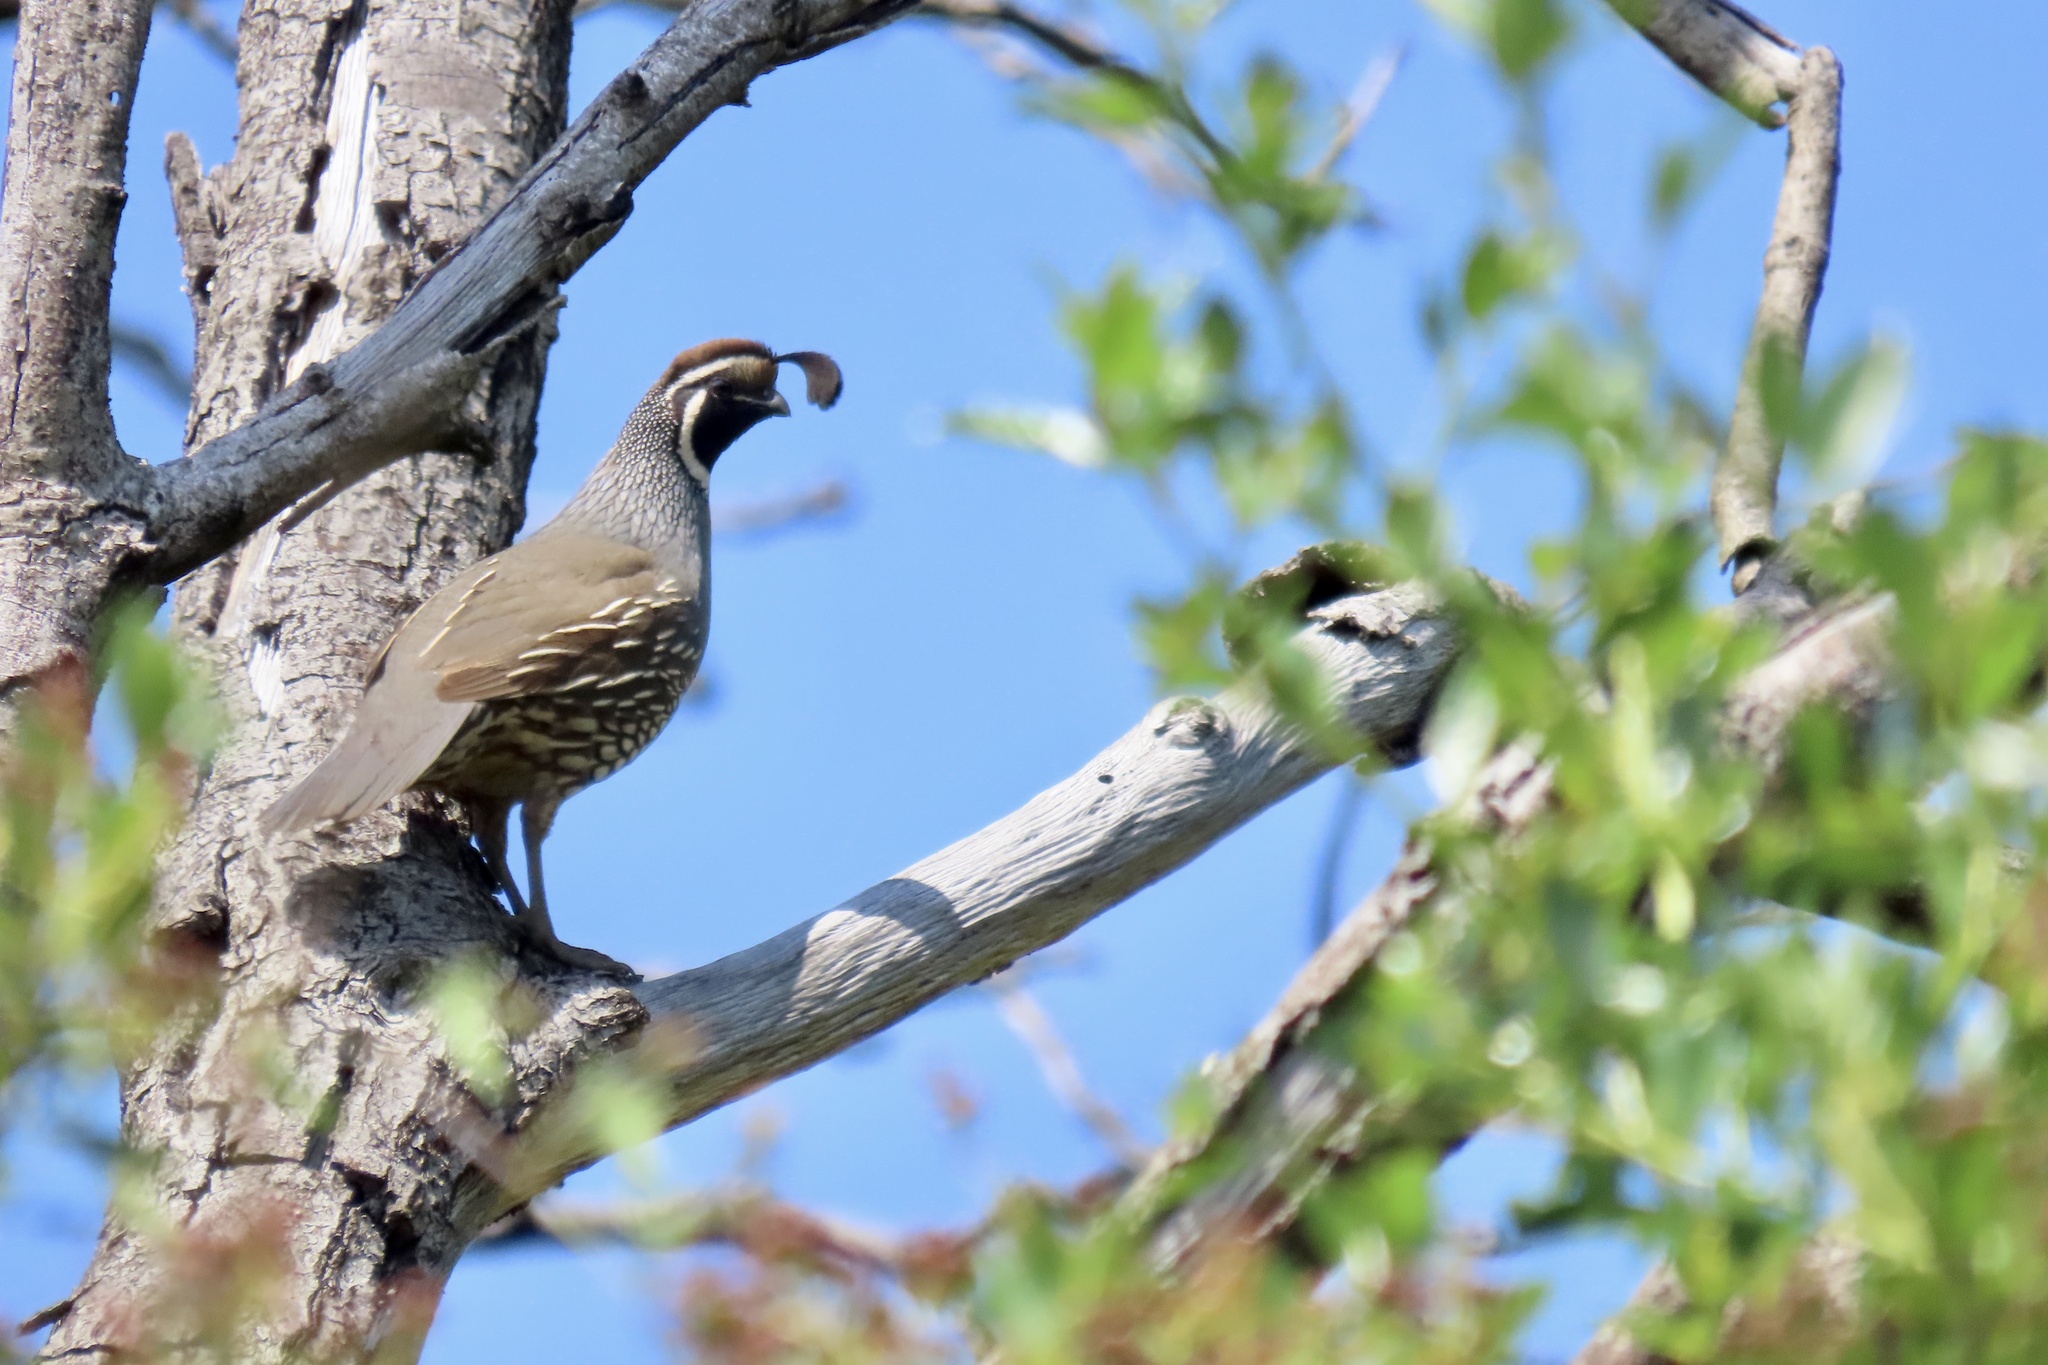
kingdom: Animalia
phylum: Chordata
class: Aves
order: Galliformes
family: Odontophoridae
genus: Callipepla
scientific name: Callipepla californica
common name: California quail
